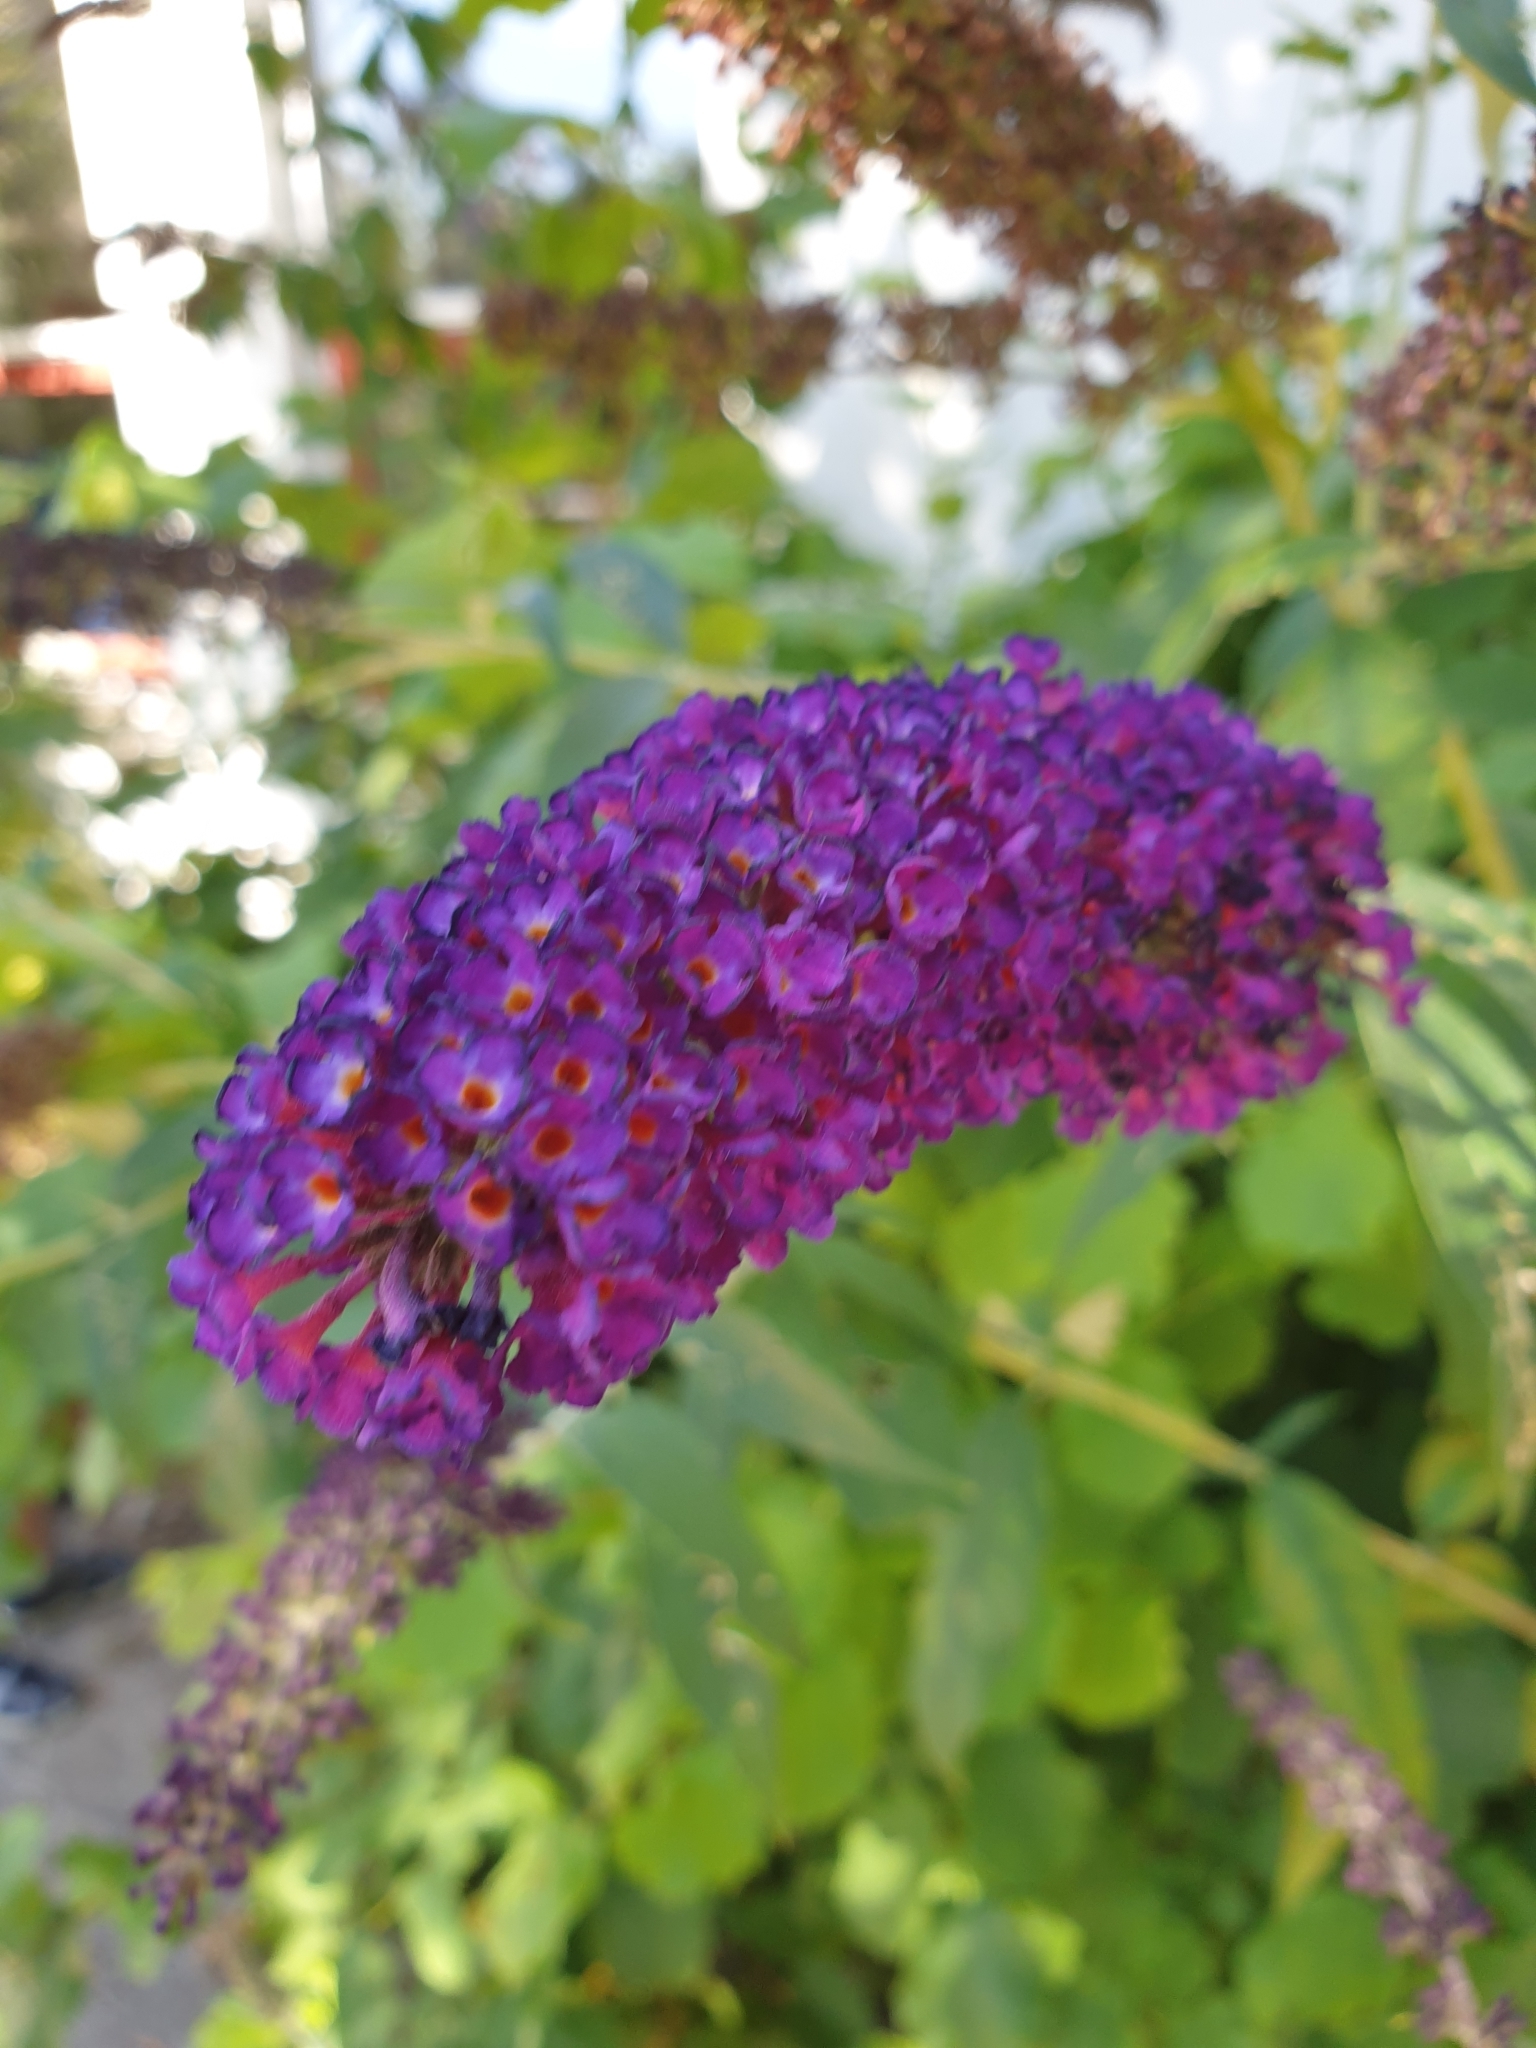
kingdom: Plantae
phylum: Tracheophyta
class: Magnoliopsida
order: Lamiales
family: Scrophulariaceae
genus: Buddleja
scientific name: Buddleja davidii
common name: Butterfly-bush
